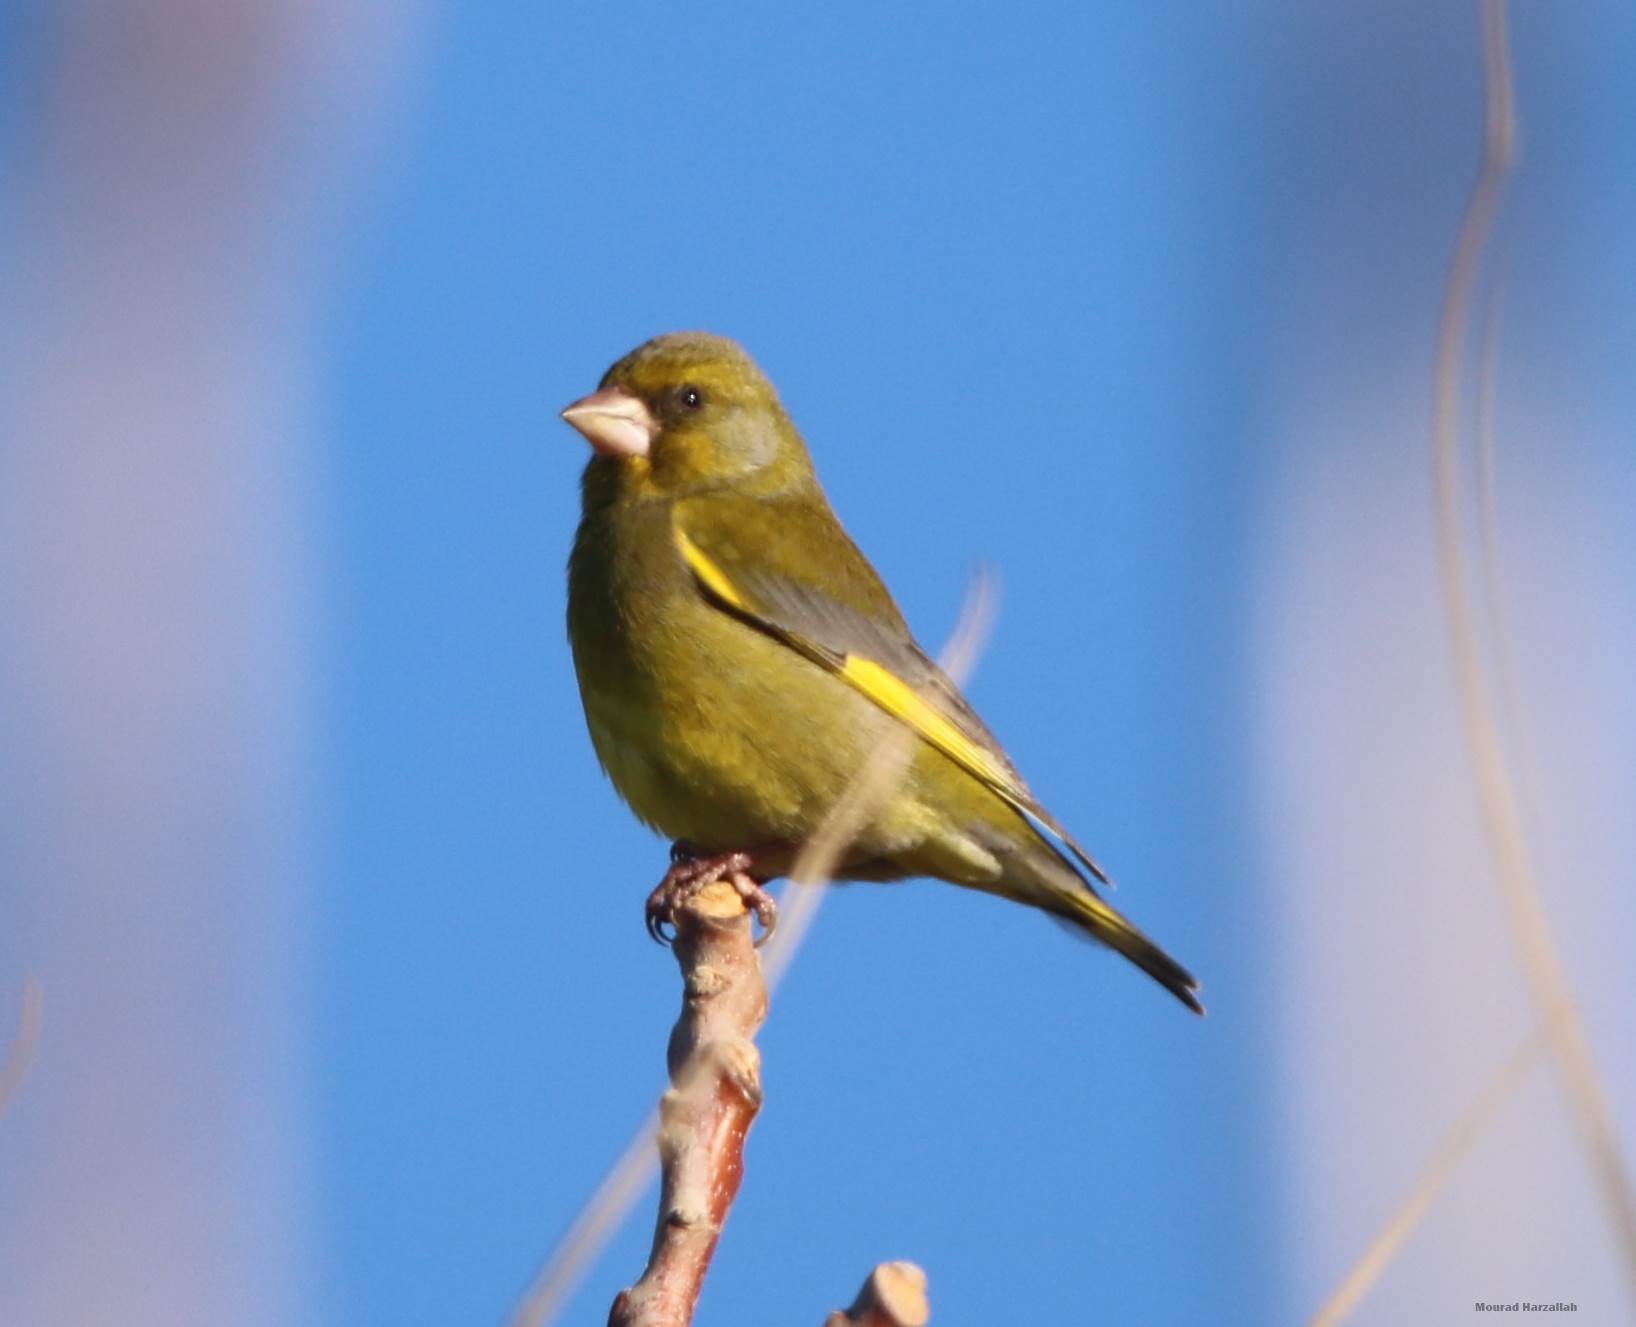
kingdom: Plantae
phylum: Tracheophyta
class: Liliopsida
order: Poales
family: Poaceae
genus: Chloris
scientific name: Chloris chloris
